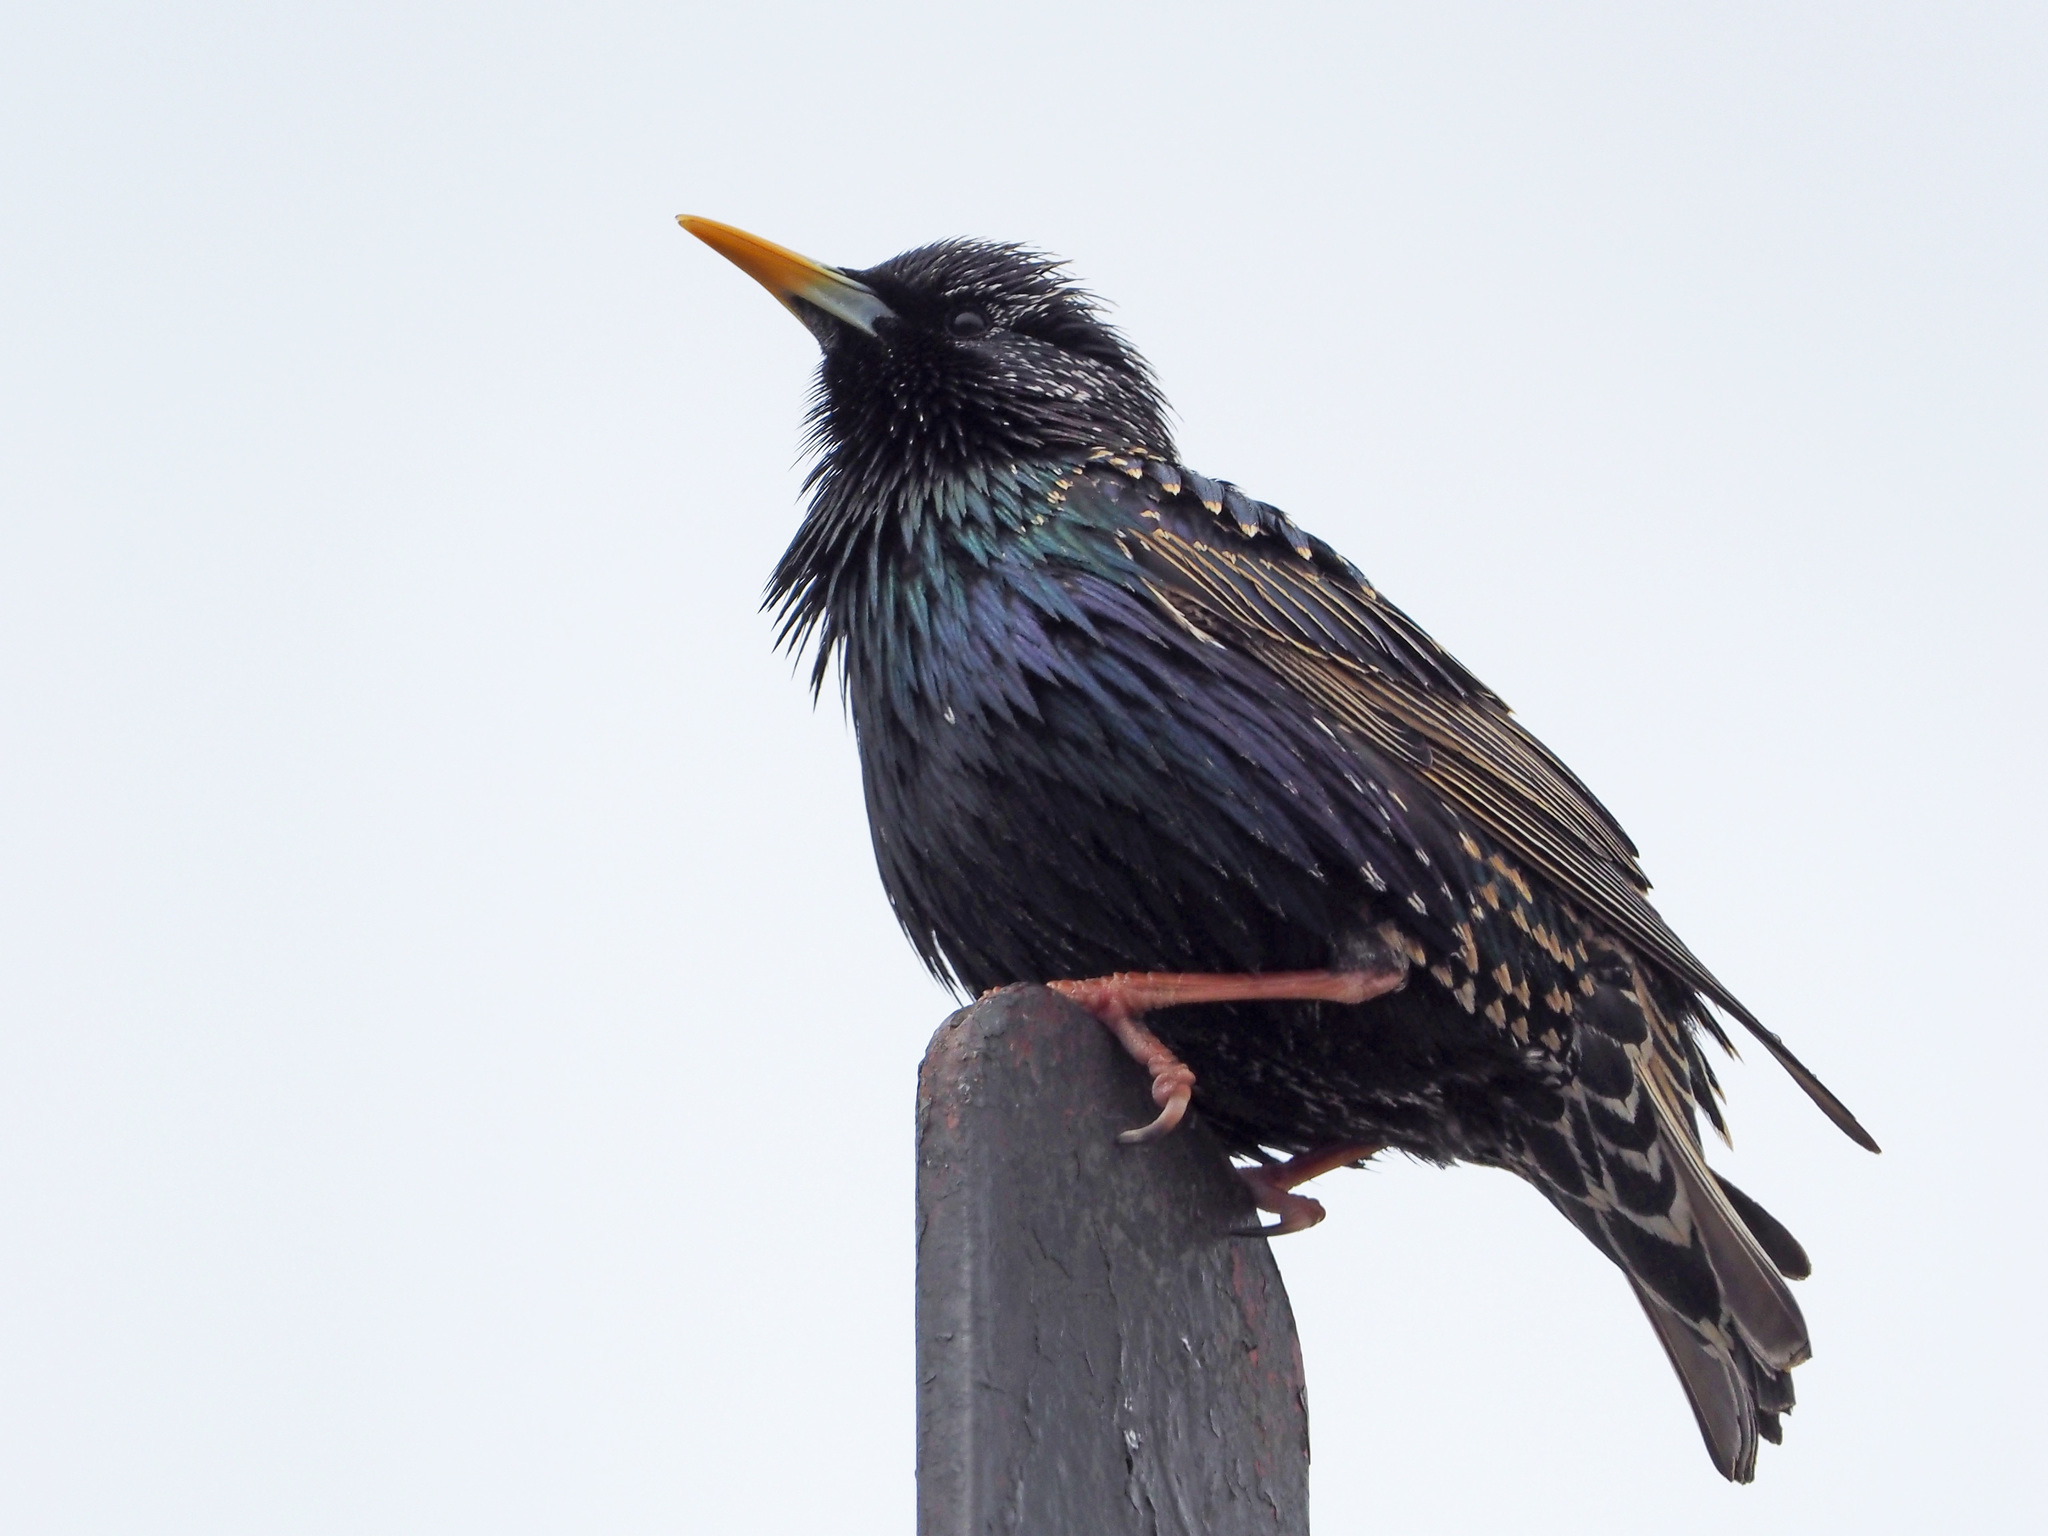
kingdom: Animalia
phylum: Chordata
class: Aves
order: Passeriformes
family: Sturnidae
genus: Sturnus
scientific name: Sturnus vulgaris
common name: Common starling
